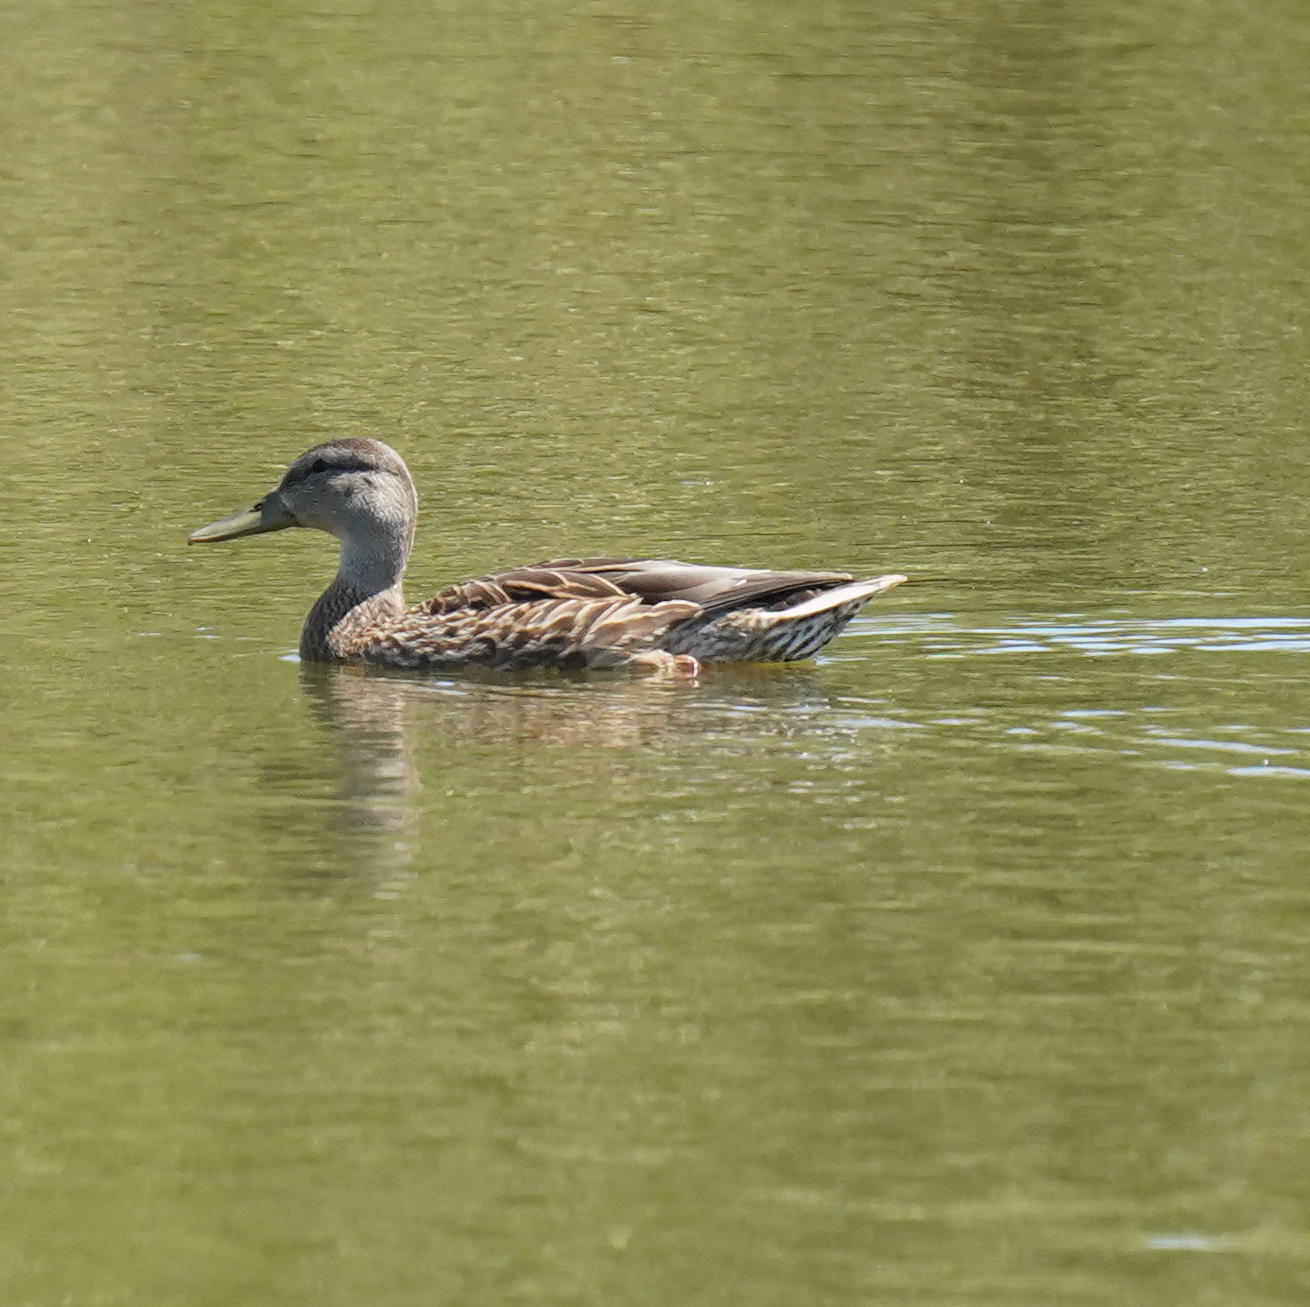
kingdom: Animalia
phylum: Chordata
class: Aves
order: Anseriformes
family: Anatidae
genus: Anas
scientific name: Anas platyrhynchos
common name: Mallard
